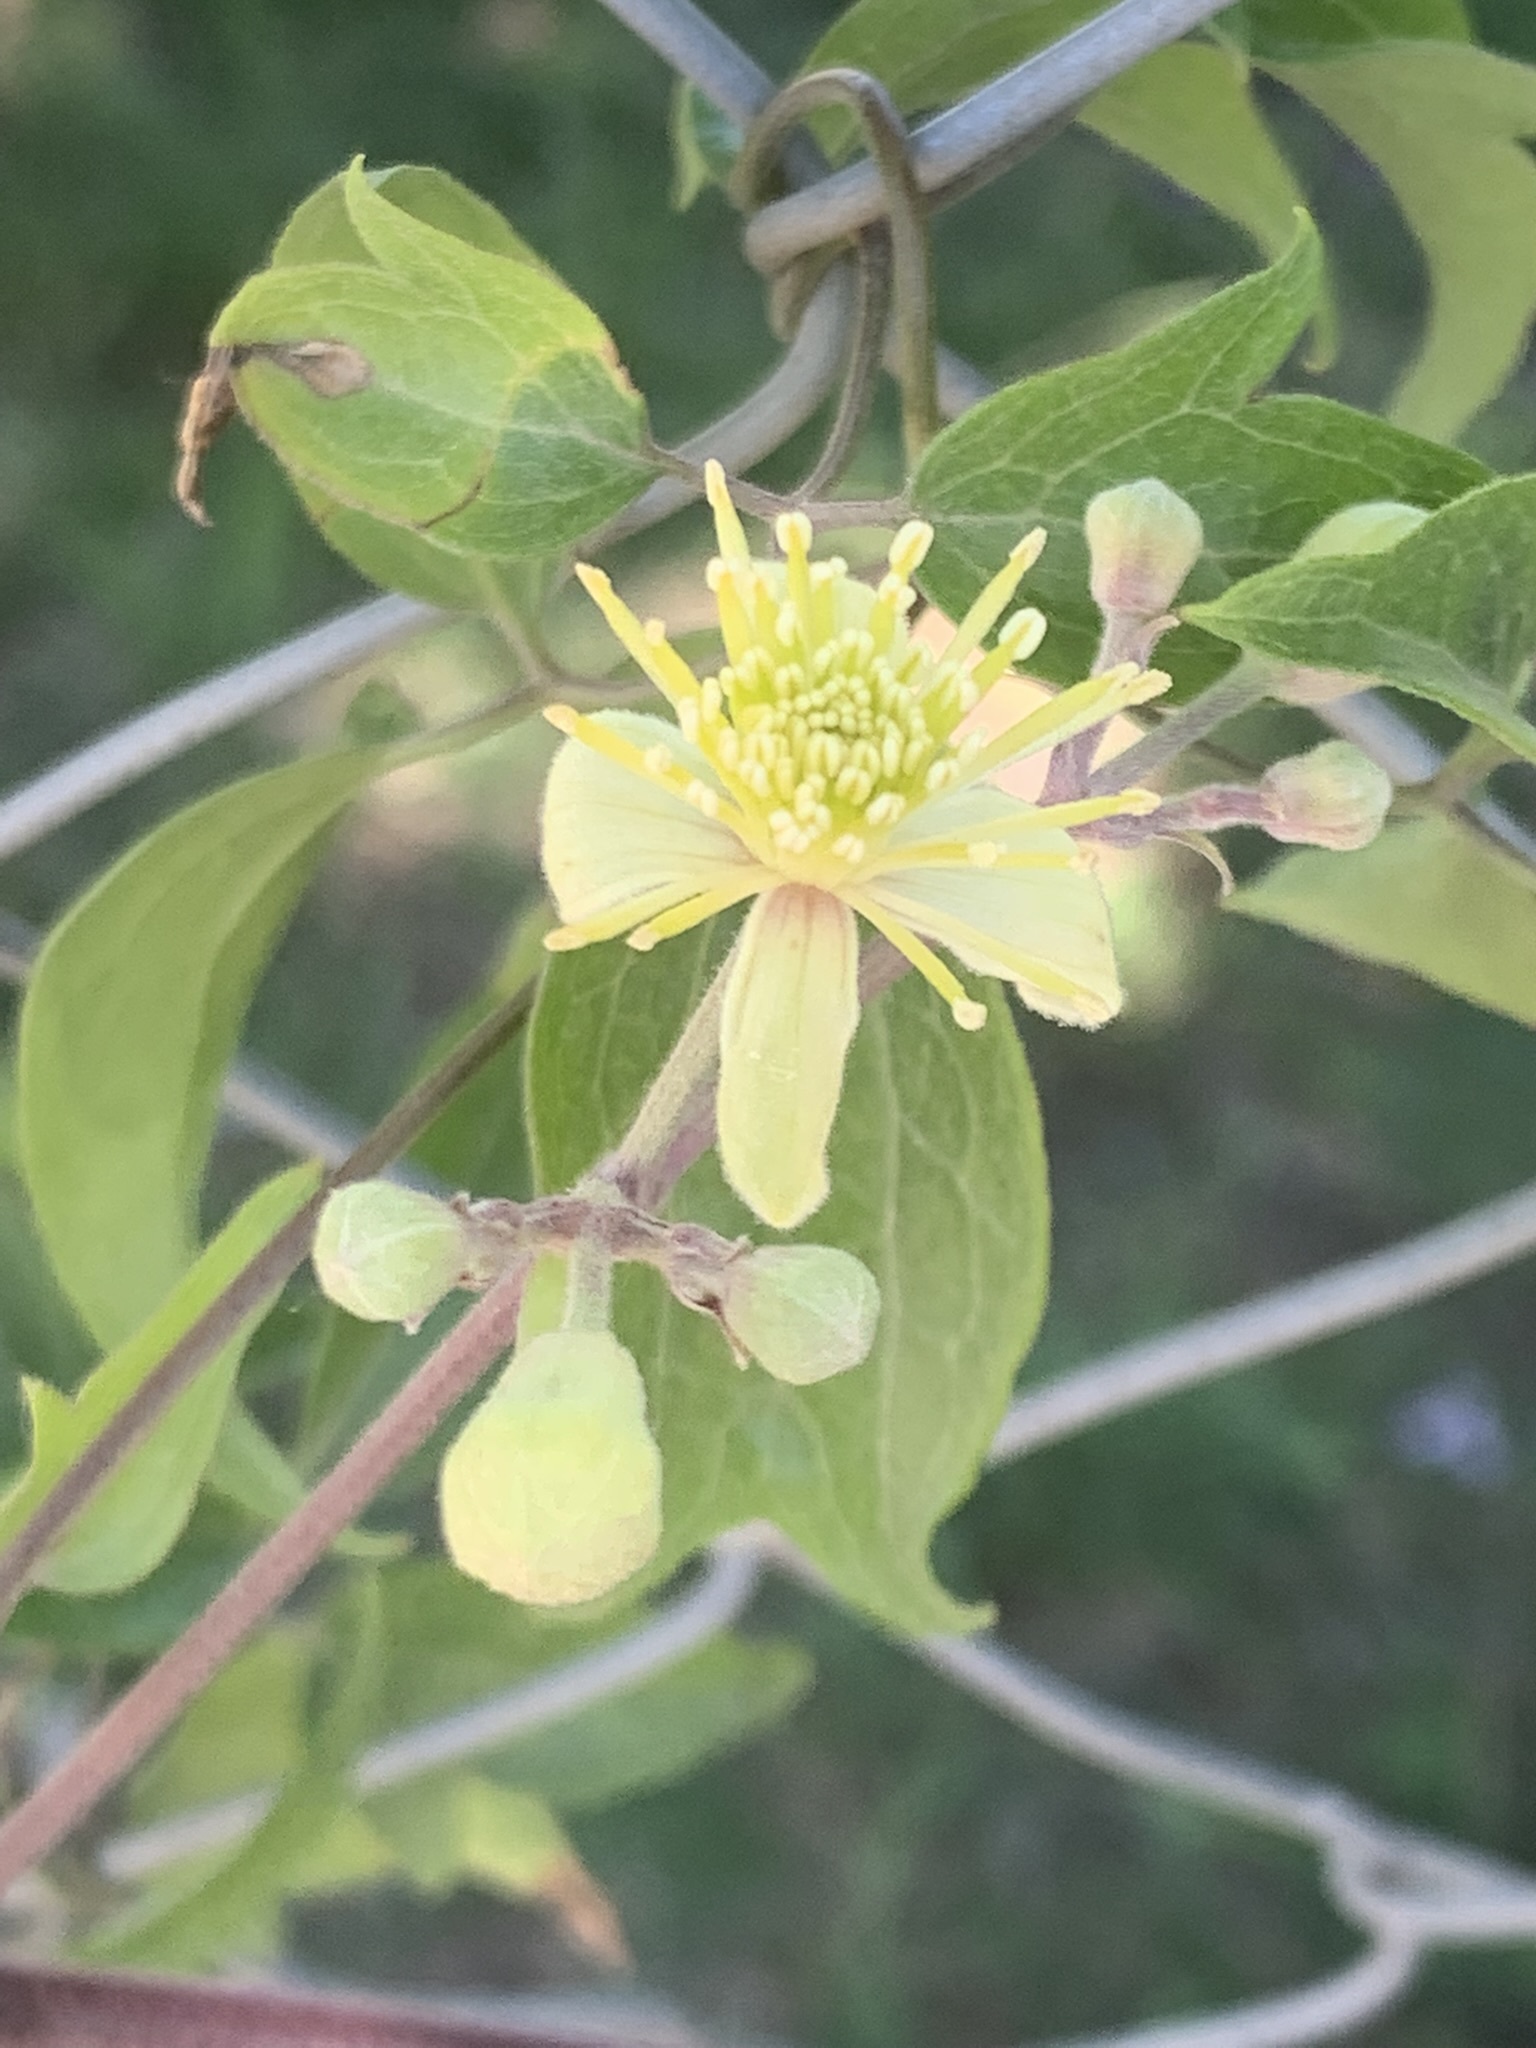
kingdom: Plantae
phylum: Tracheophyta
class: Magnoliopsida
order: Ranunculales
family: Ranunculaceae
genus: Clematis
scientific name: Clematis montevidensis
